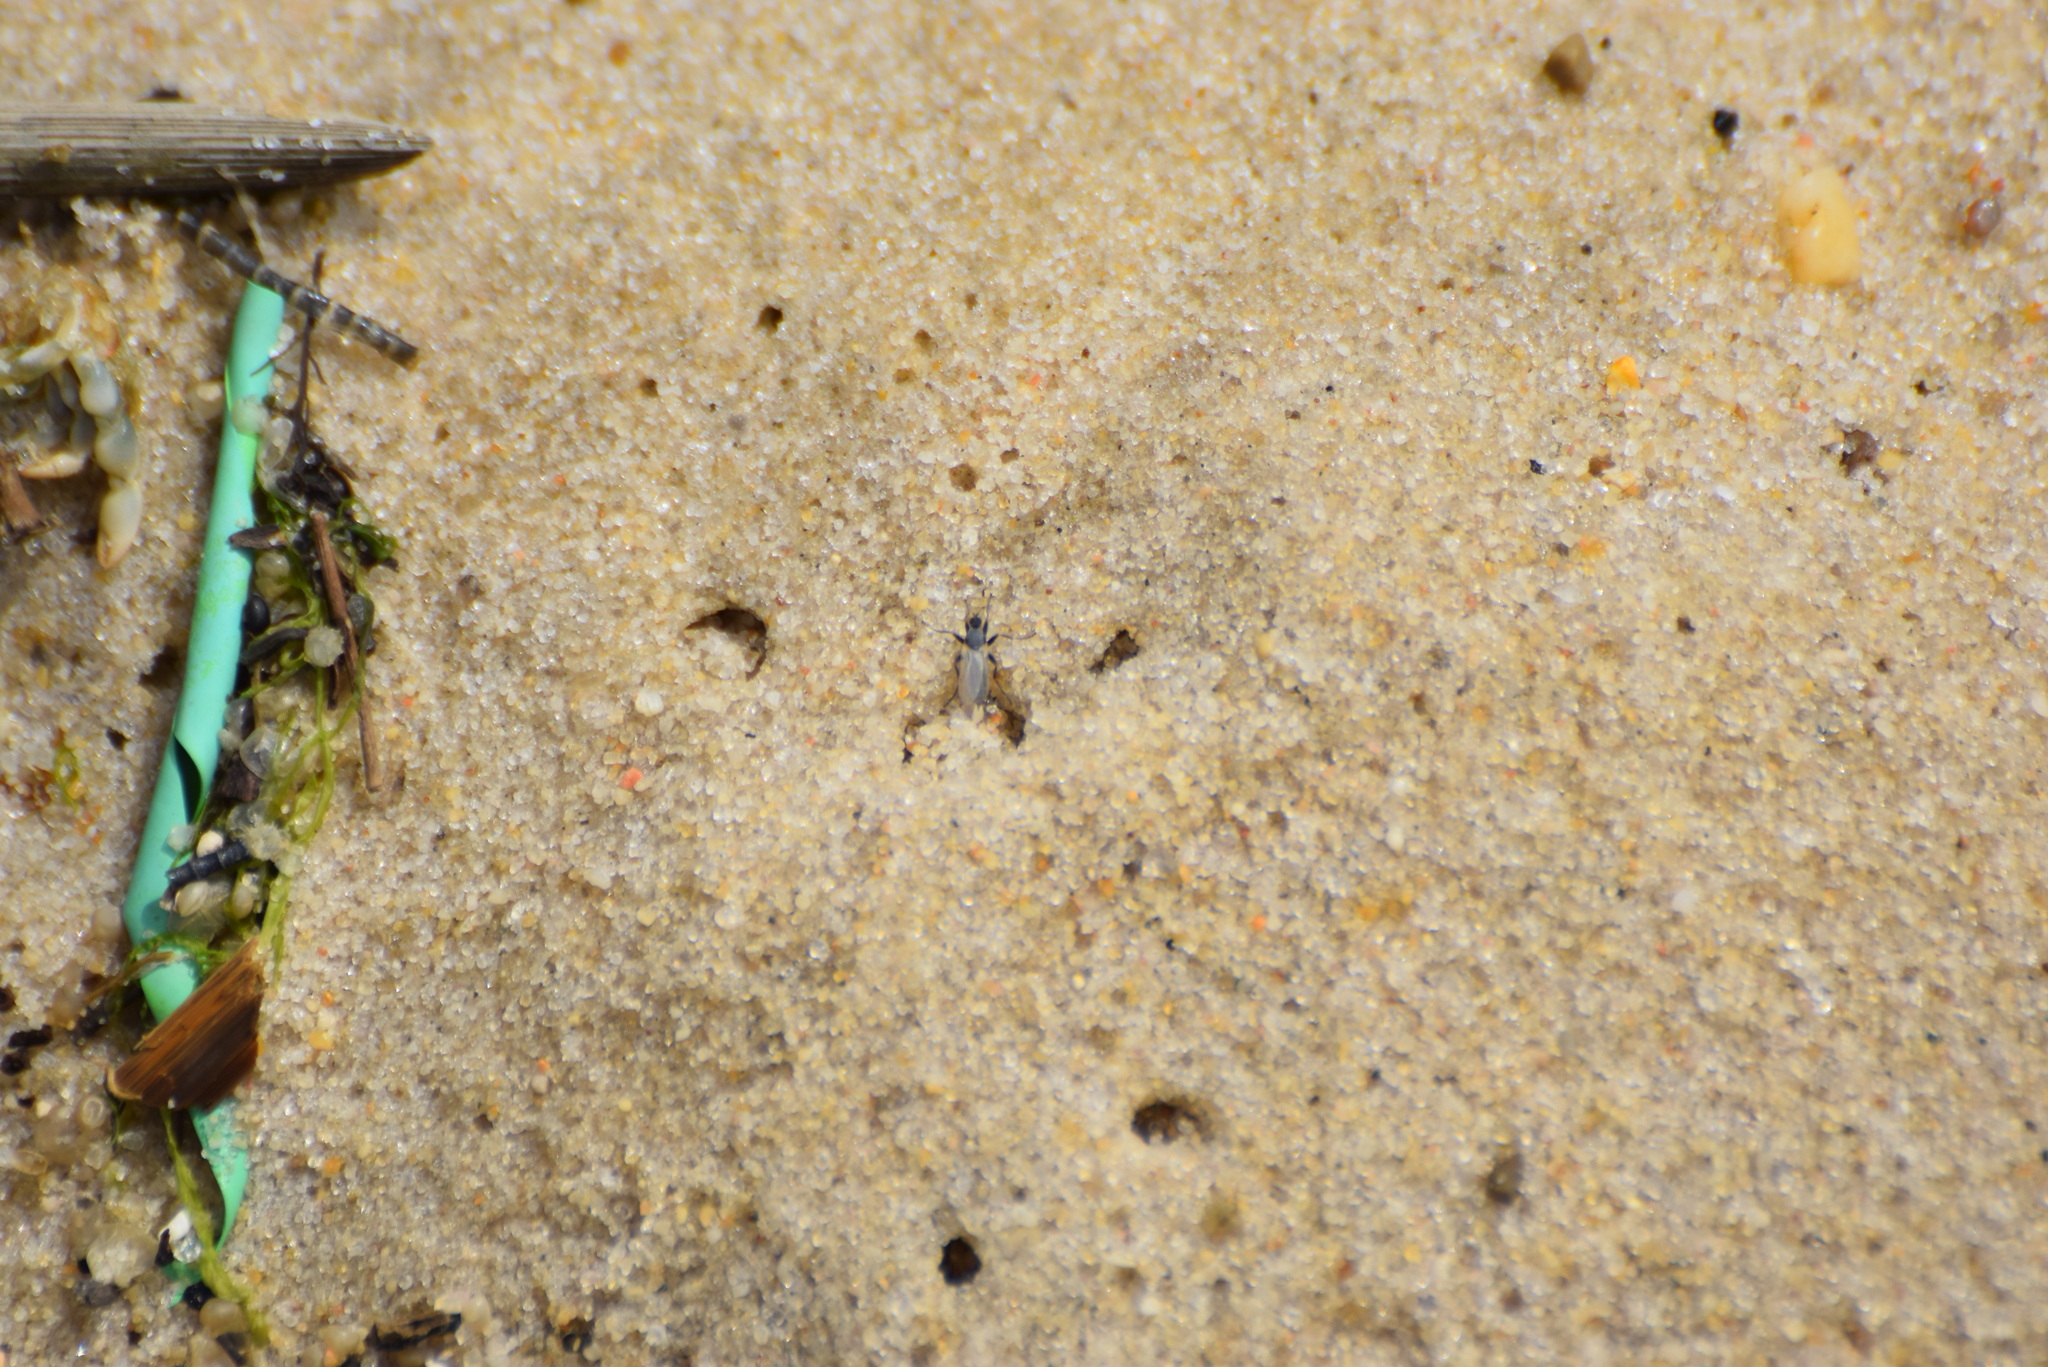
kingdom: Animalia
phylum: Arthropoda
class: Insecta
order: Diptera
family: Hybotidae
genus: Chersodromia
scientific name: Chersodromia inusitata
